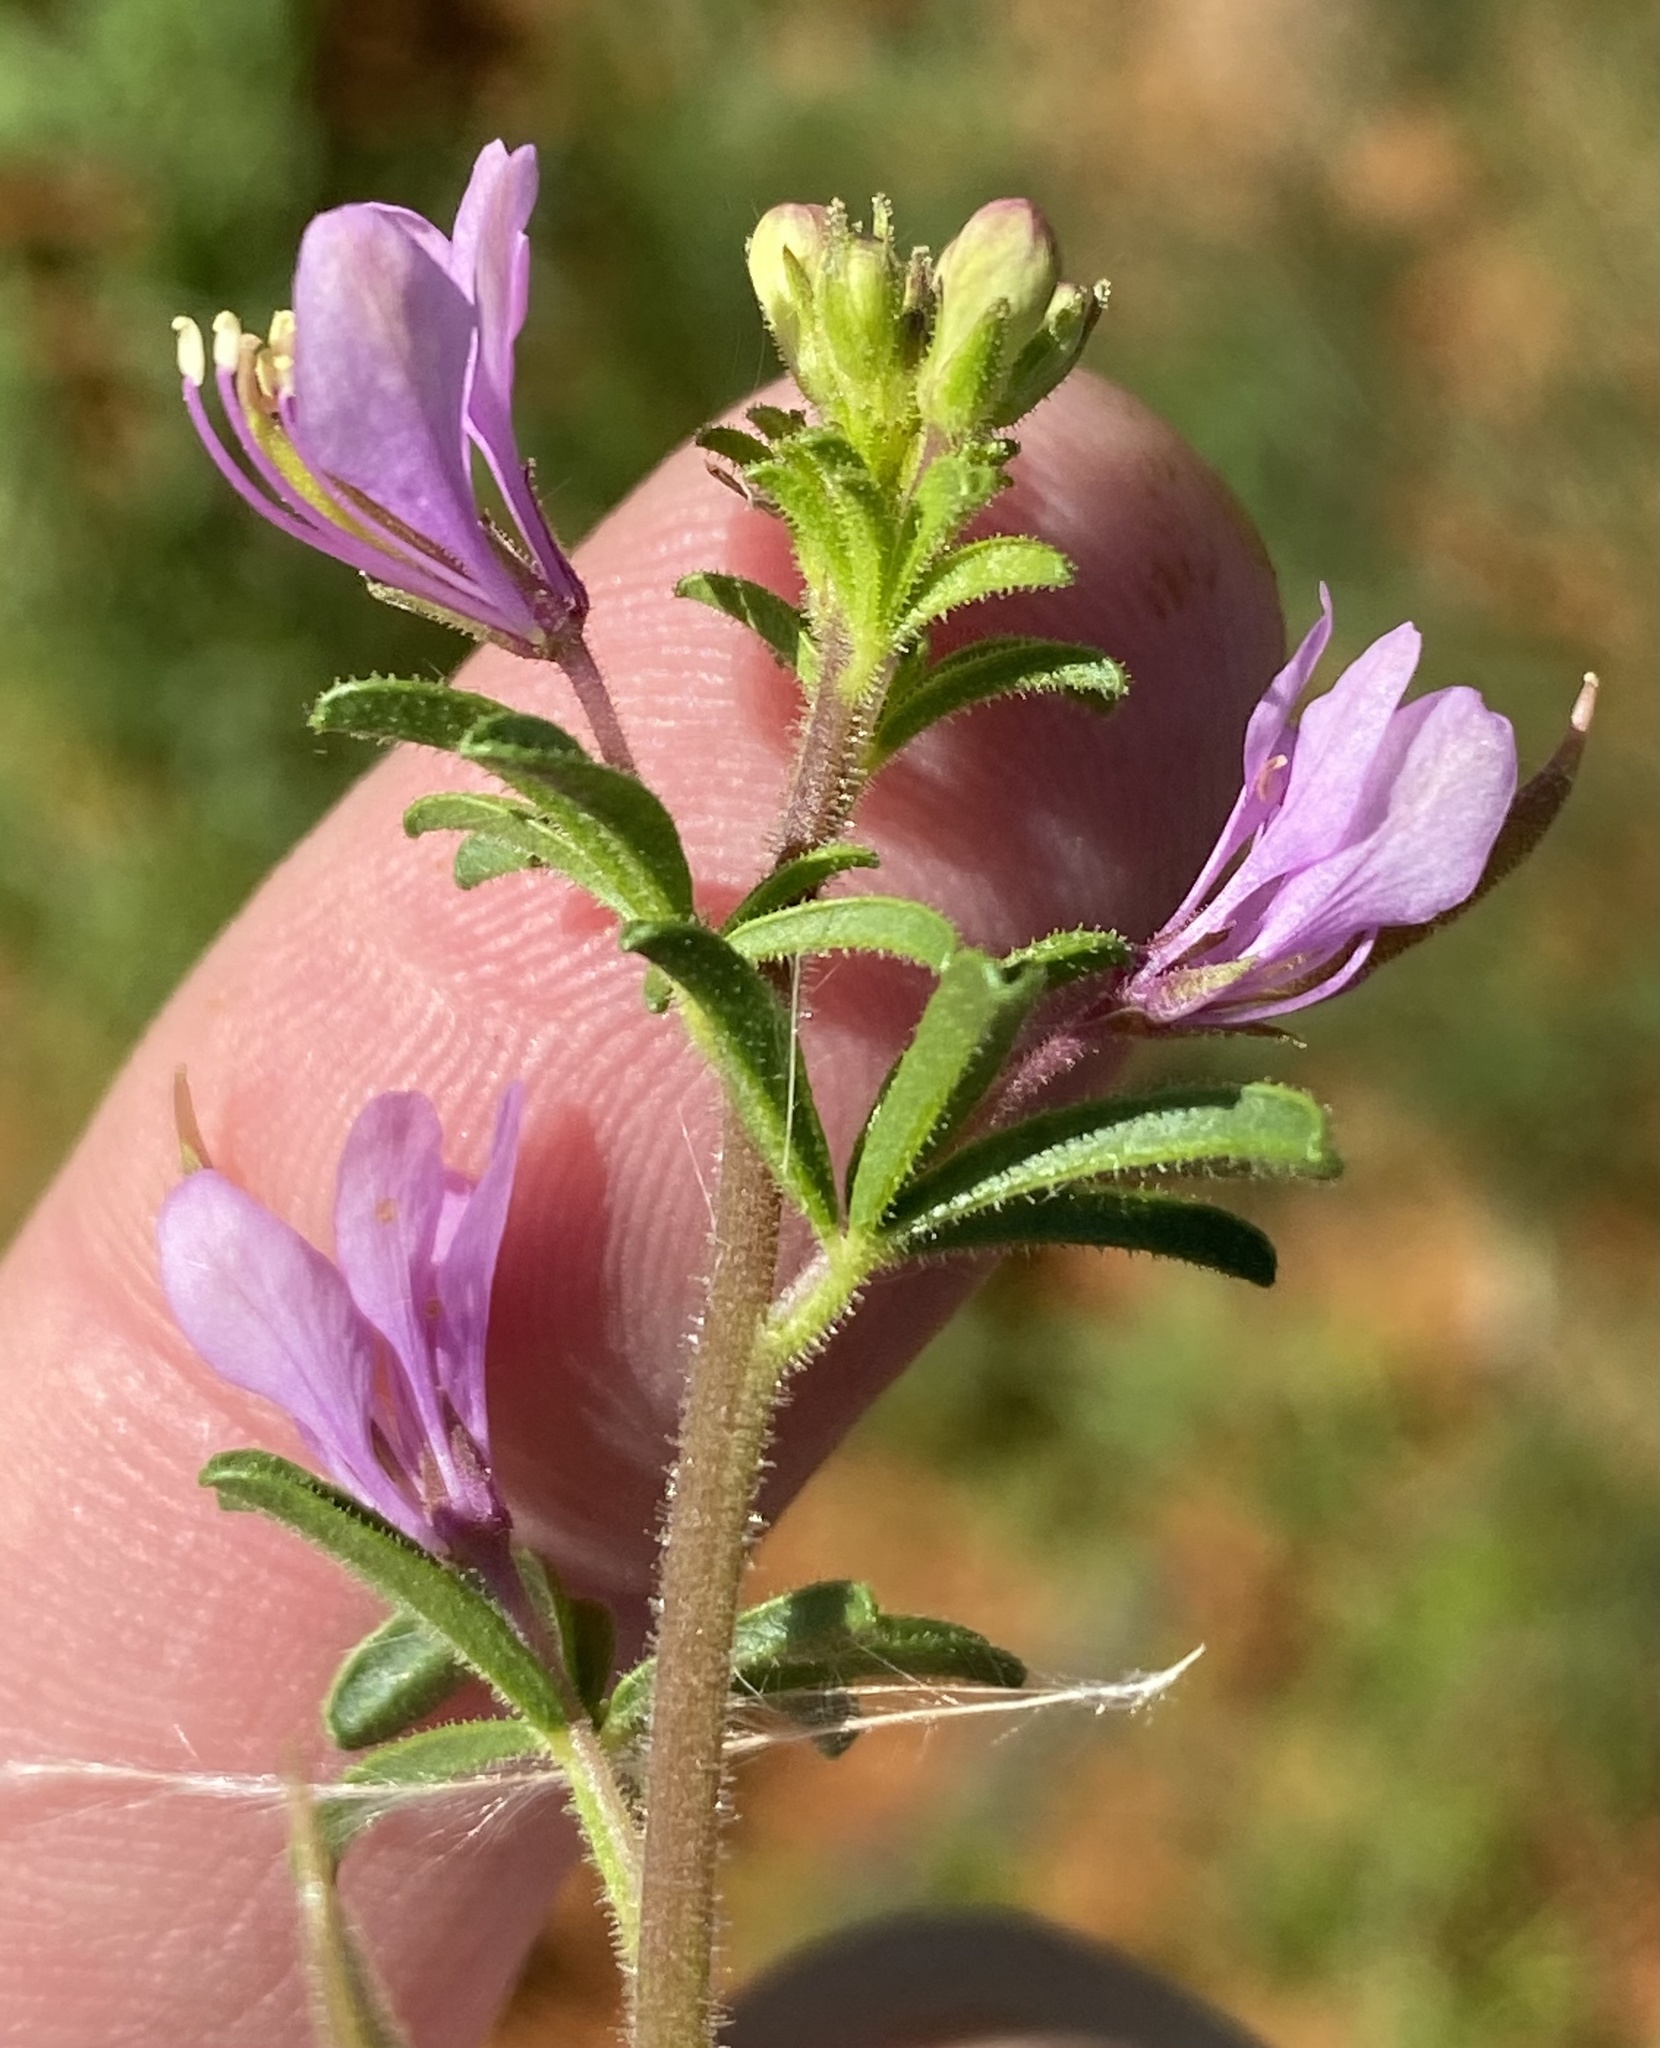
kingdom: Plantae
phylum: Tracheophyta
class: Magnoliopsida
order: Brassicales
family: Cleomaceae
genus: Sieruela
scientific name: Sieruela rubella
